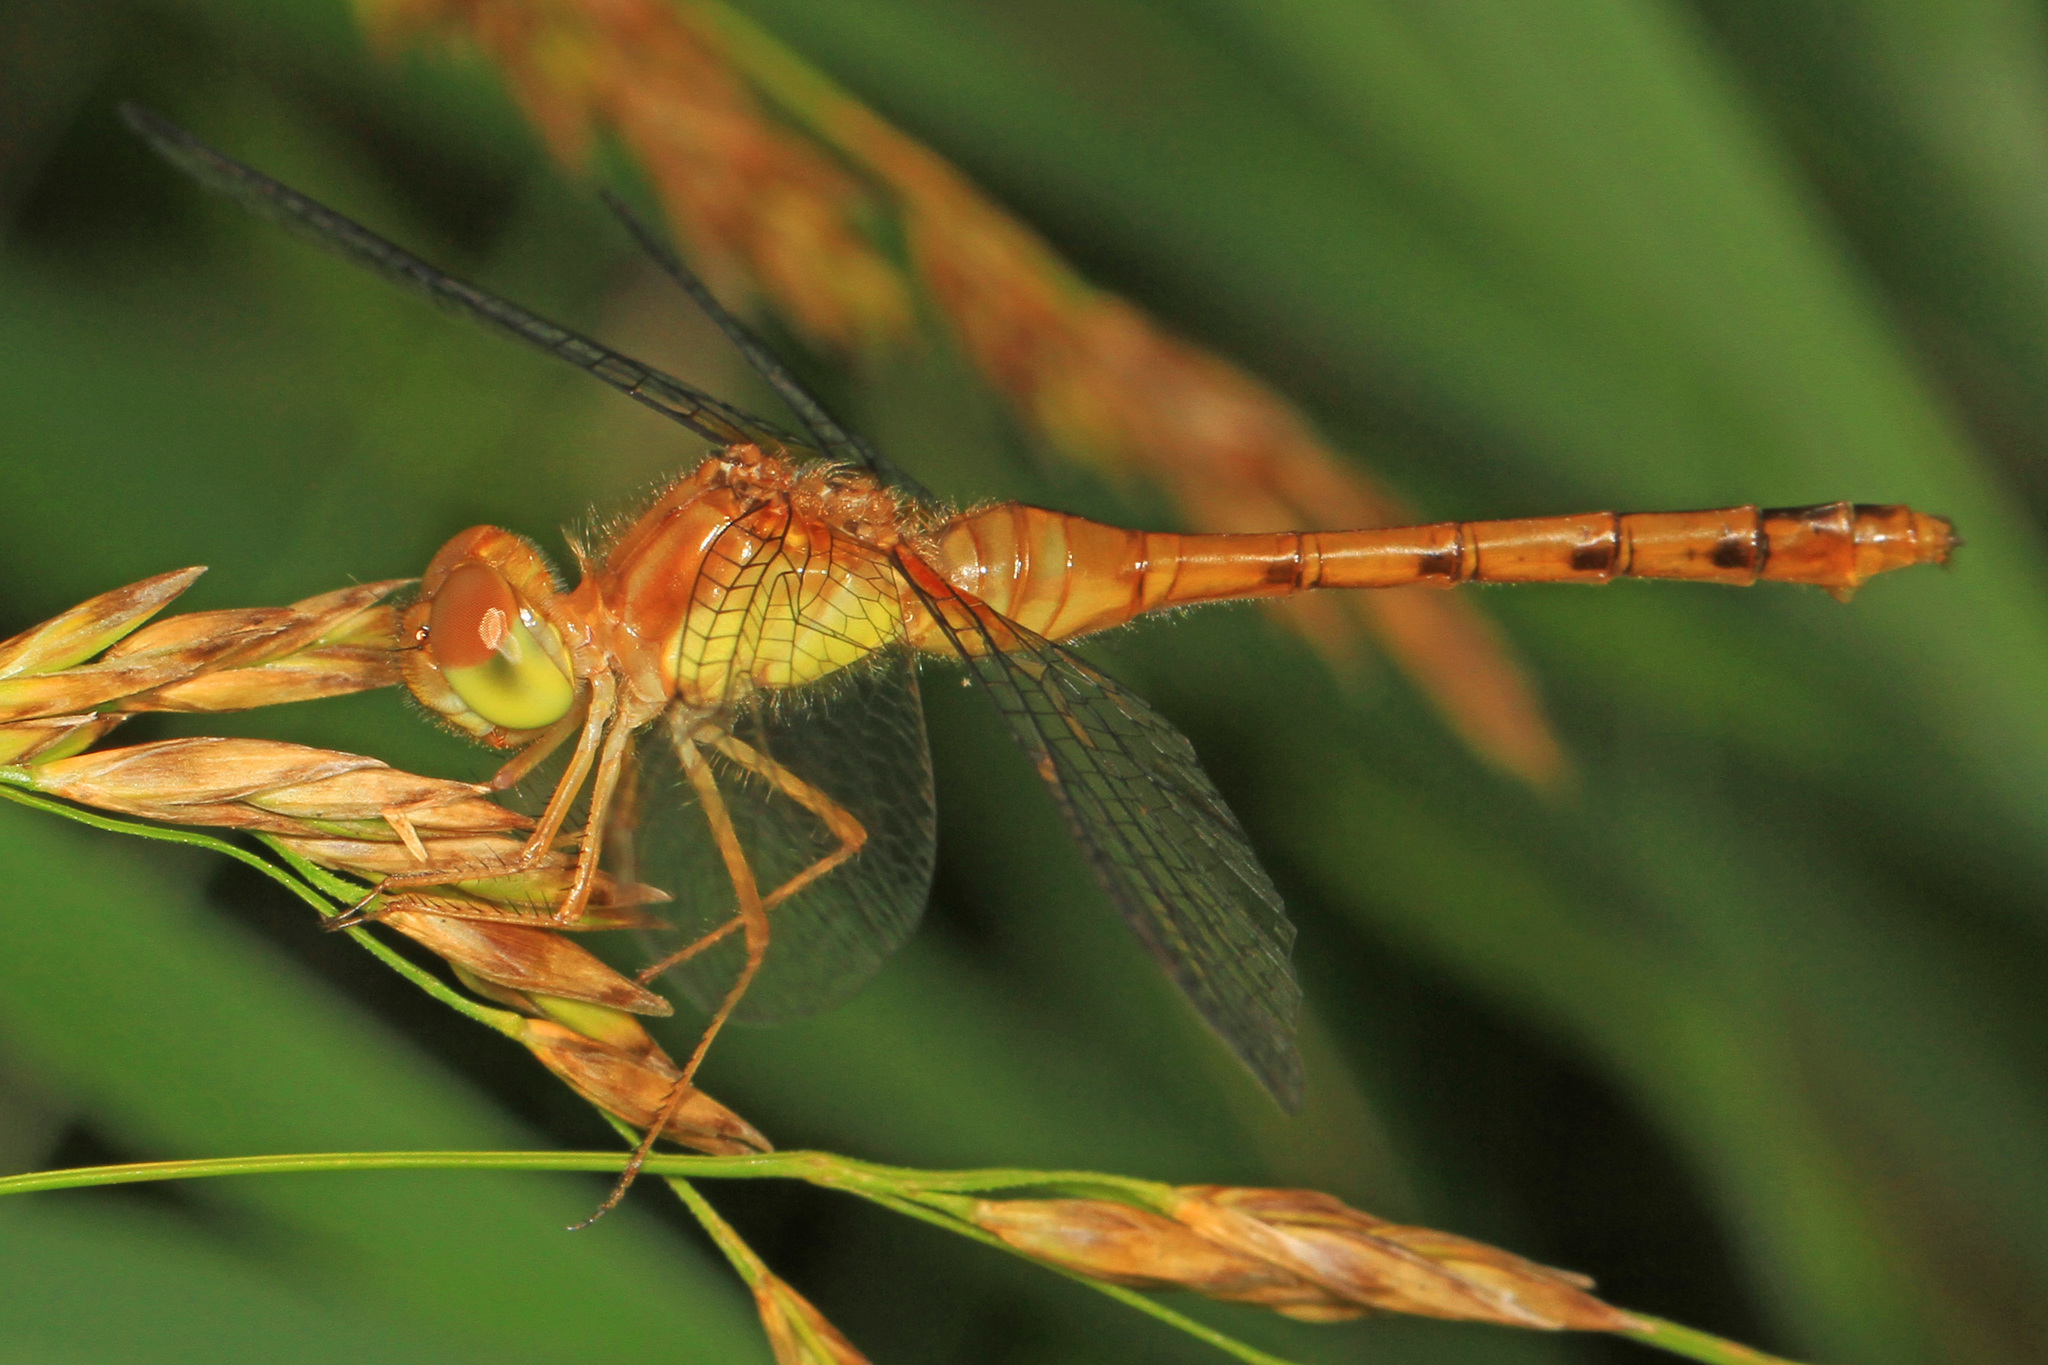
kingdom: Animalia
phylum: Arthropoda
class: Insecta
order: Odonata
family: Libellulidae
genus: Sympetrum
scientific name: Sympetrum vicinum
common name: Autumn meadowhawk
